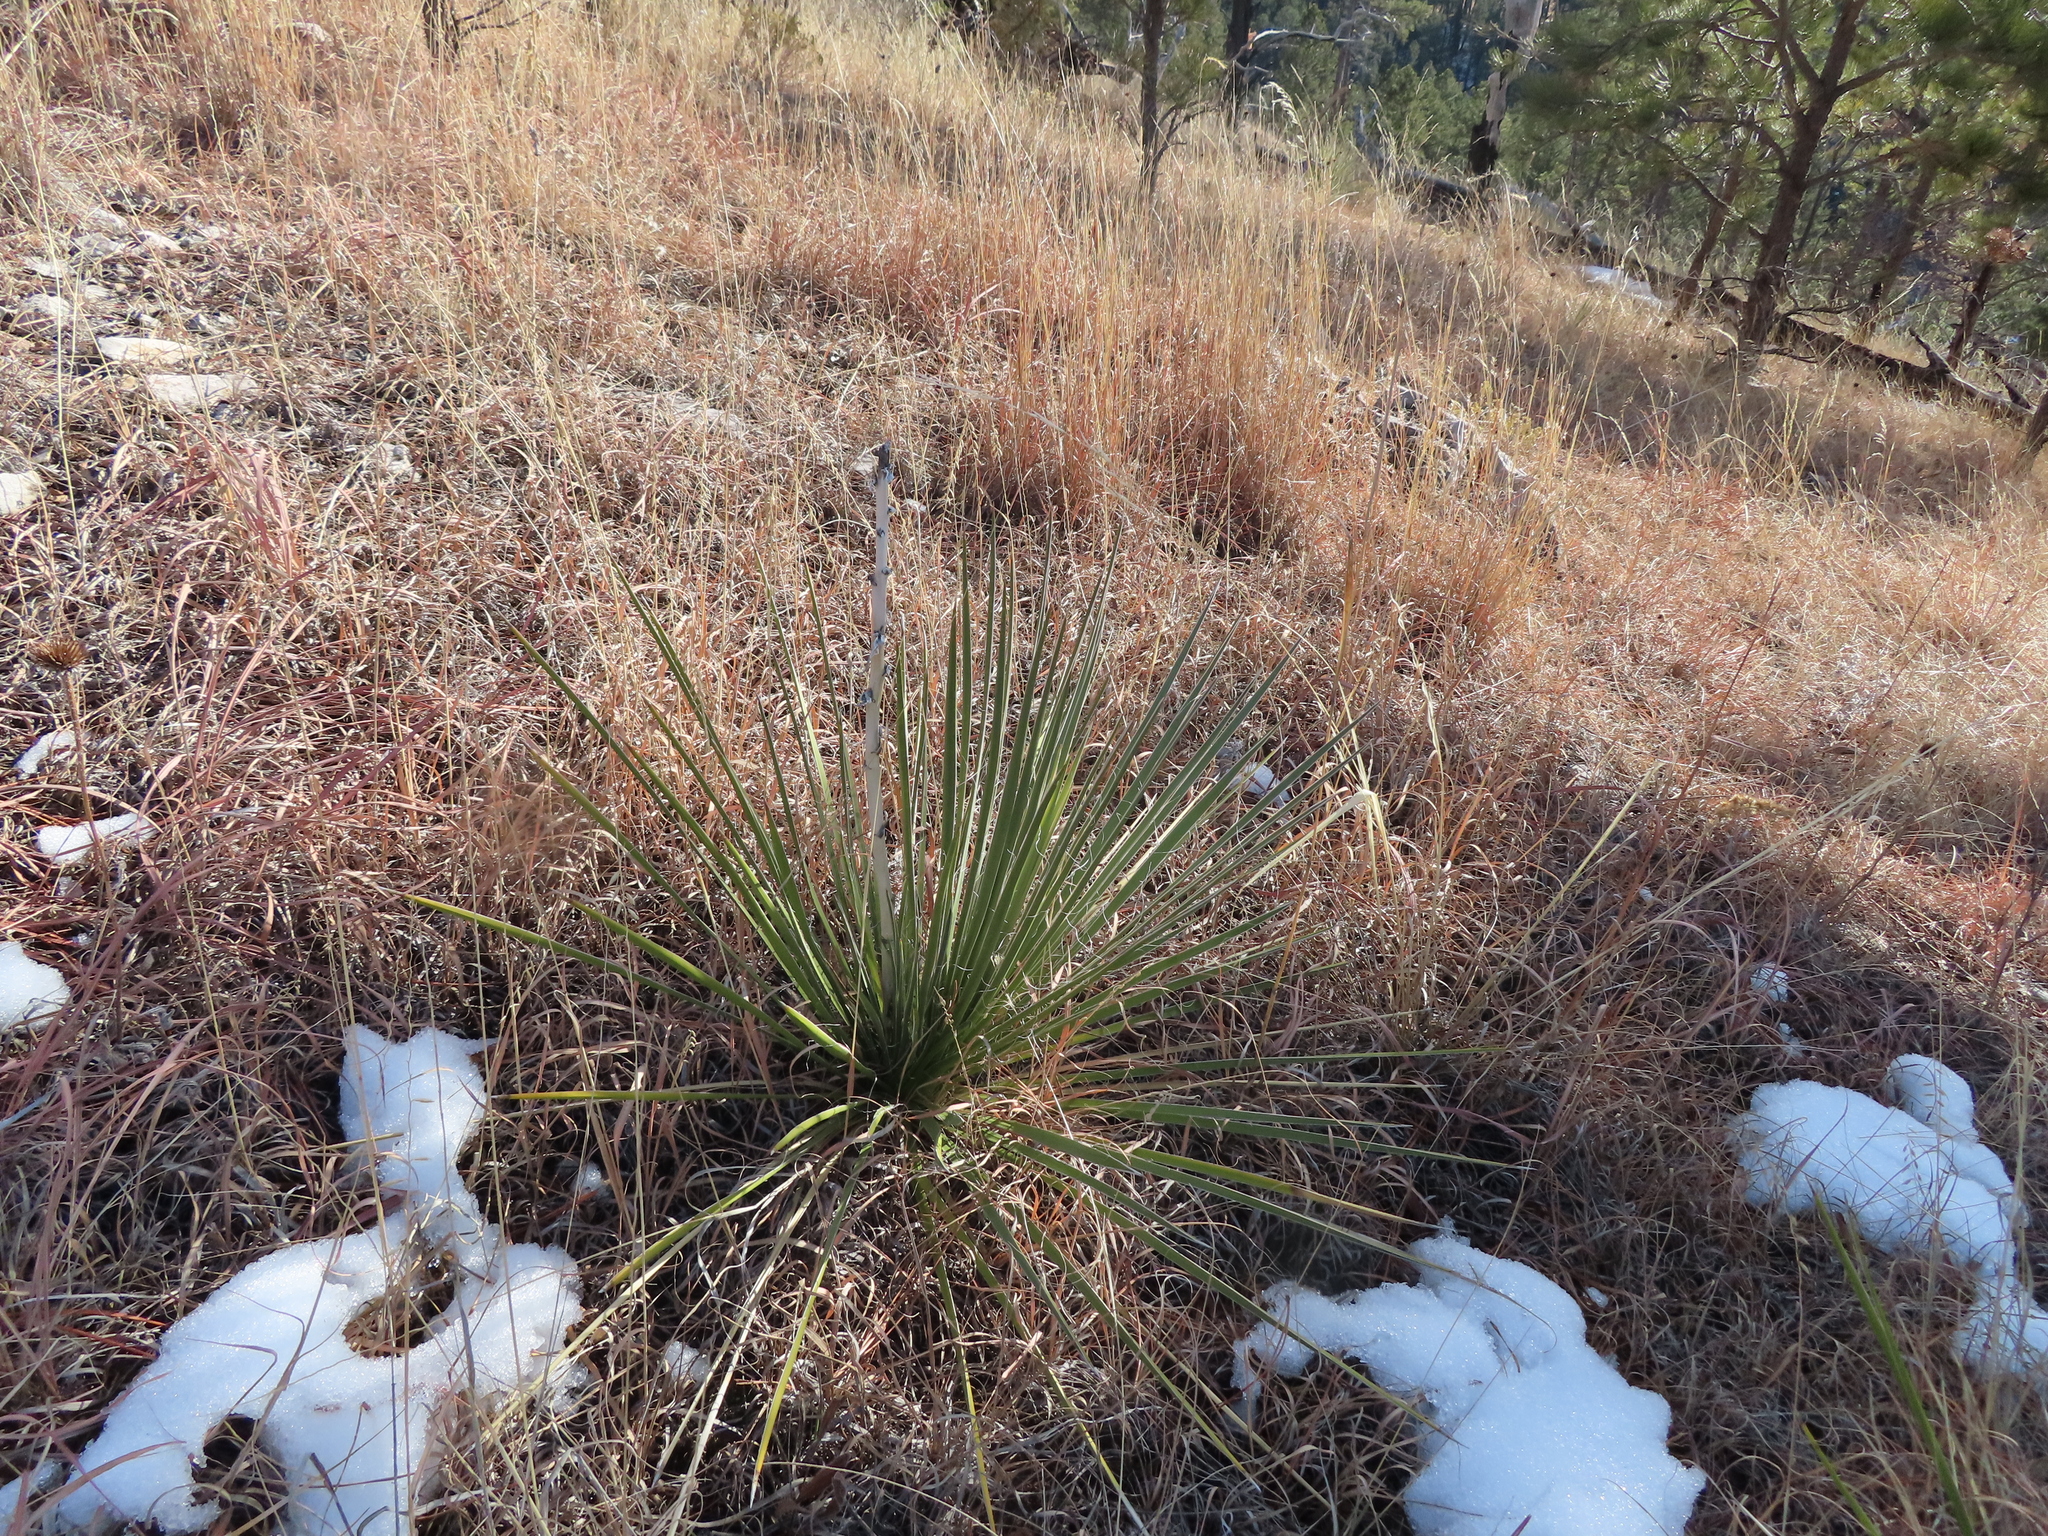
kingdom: Plantae
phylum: Tracheophyta
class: Liliopsida
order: Asparagales
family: Asparagaceae
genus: Yucca
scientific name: Yucca glauca
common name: Great plains yucca
